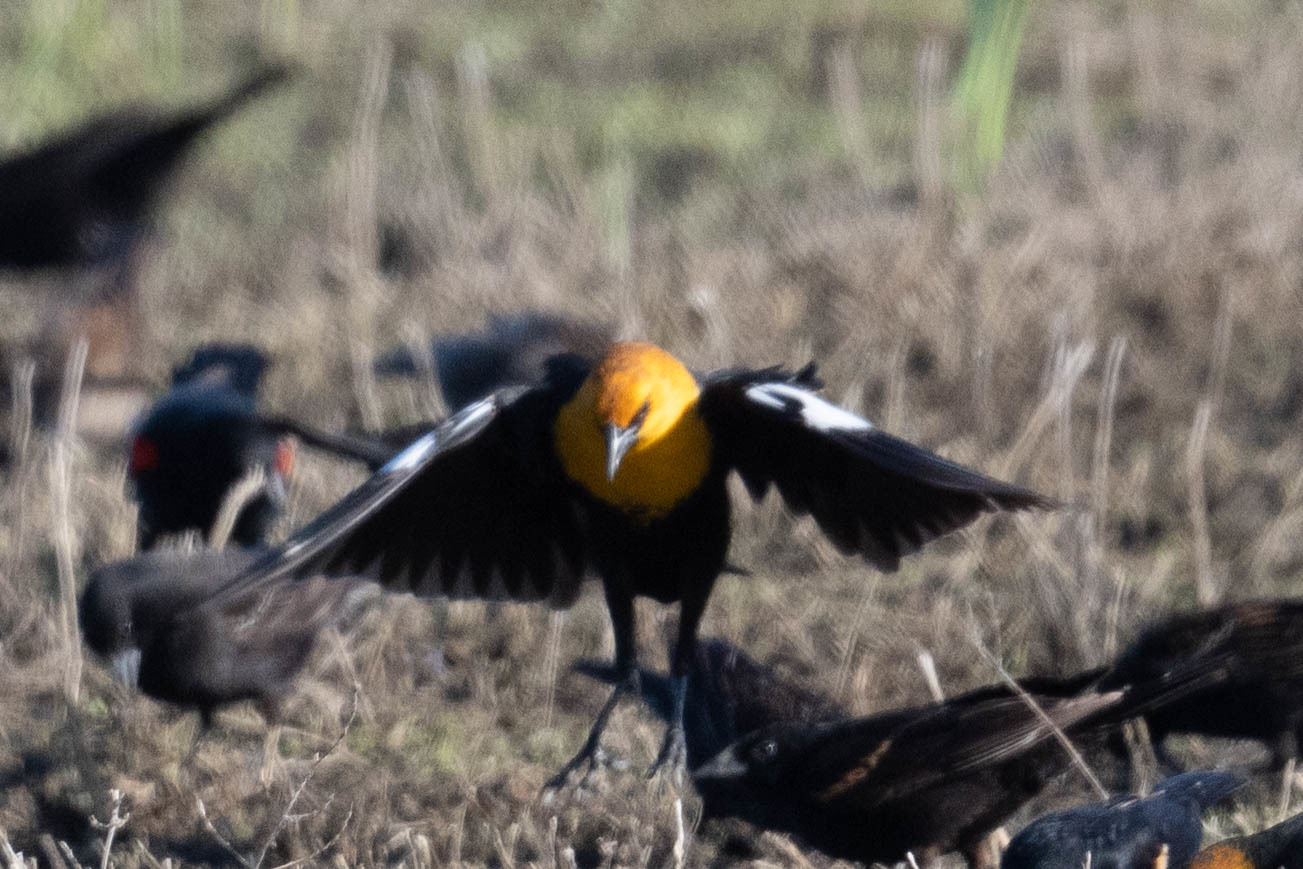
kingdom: Animalia
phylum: Chordata
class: Aves
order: Passeriformes
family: Icteridae
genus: Xanthocephalus
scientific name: Xanthocephalus xanthocephalus
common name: Yellow-headed blackbird
